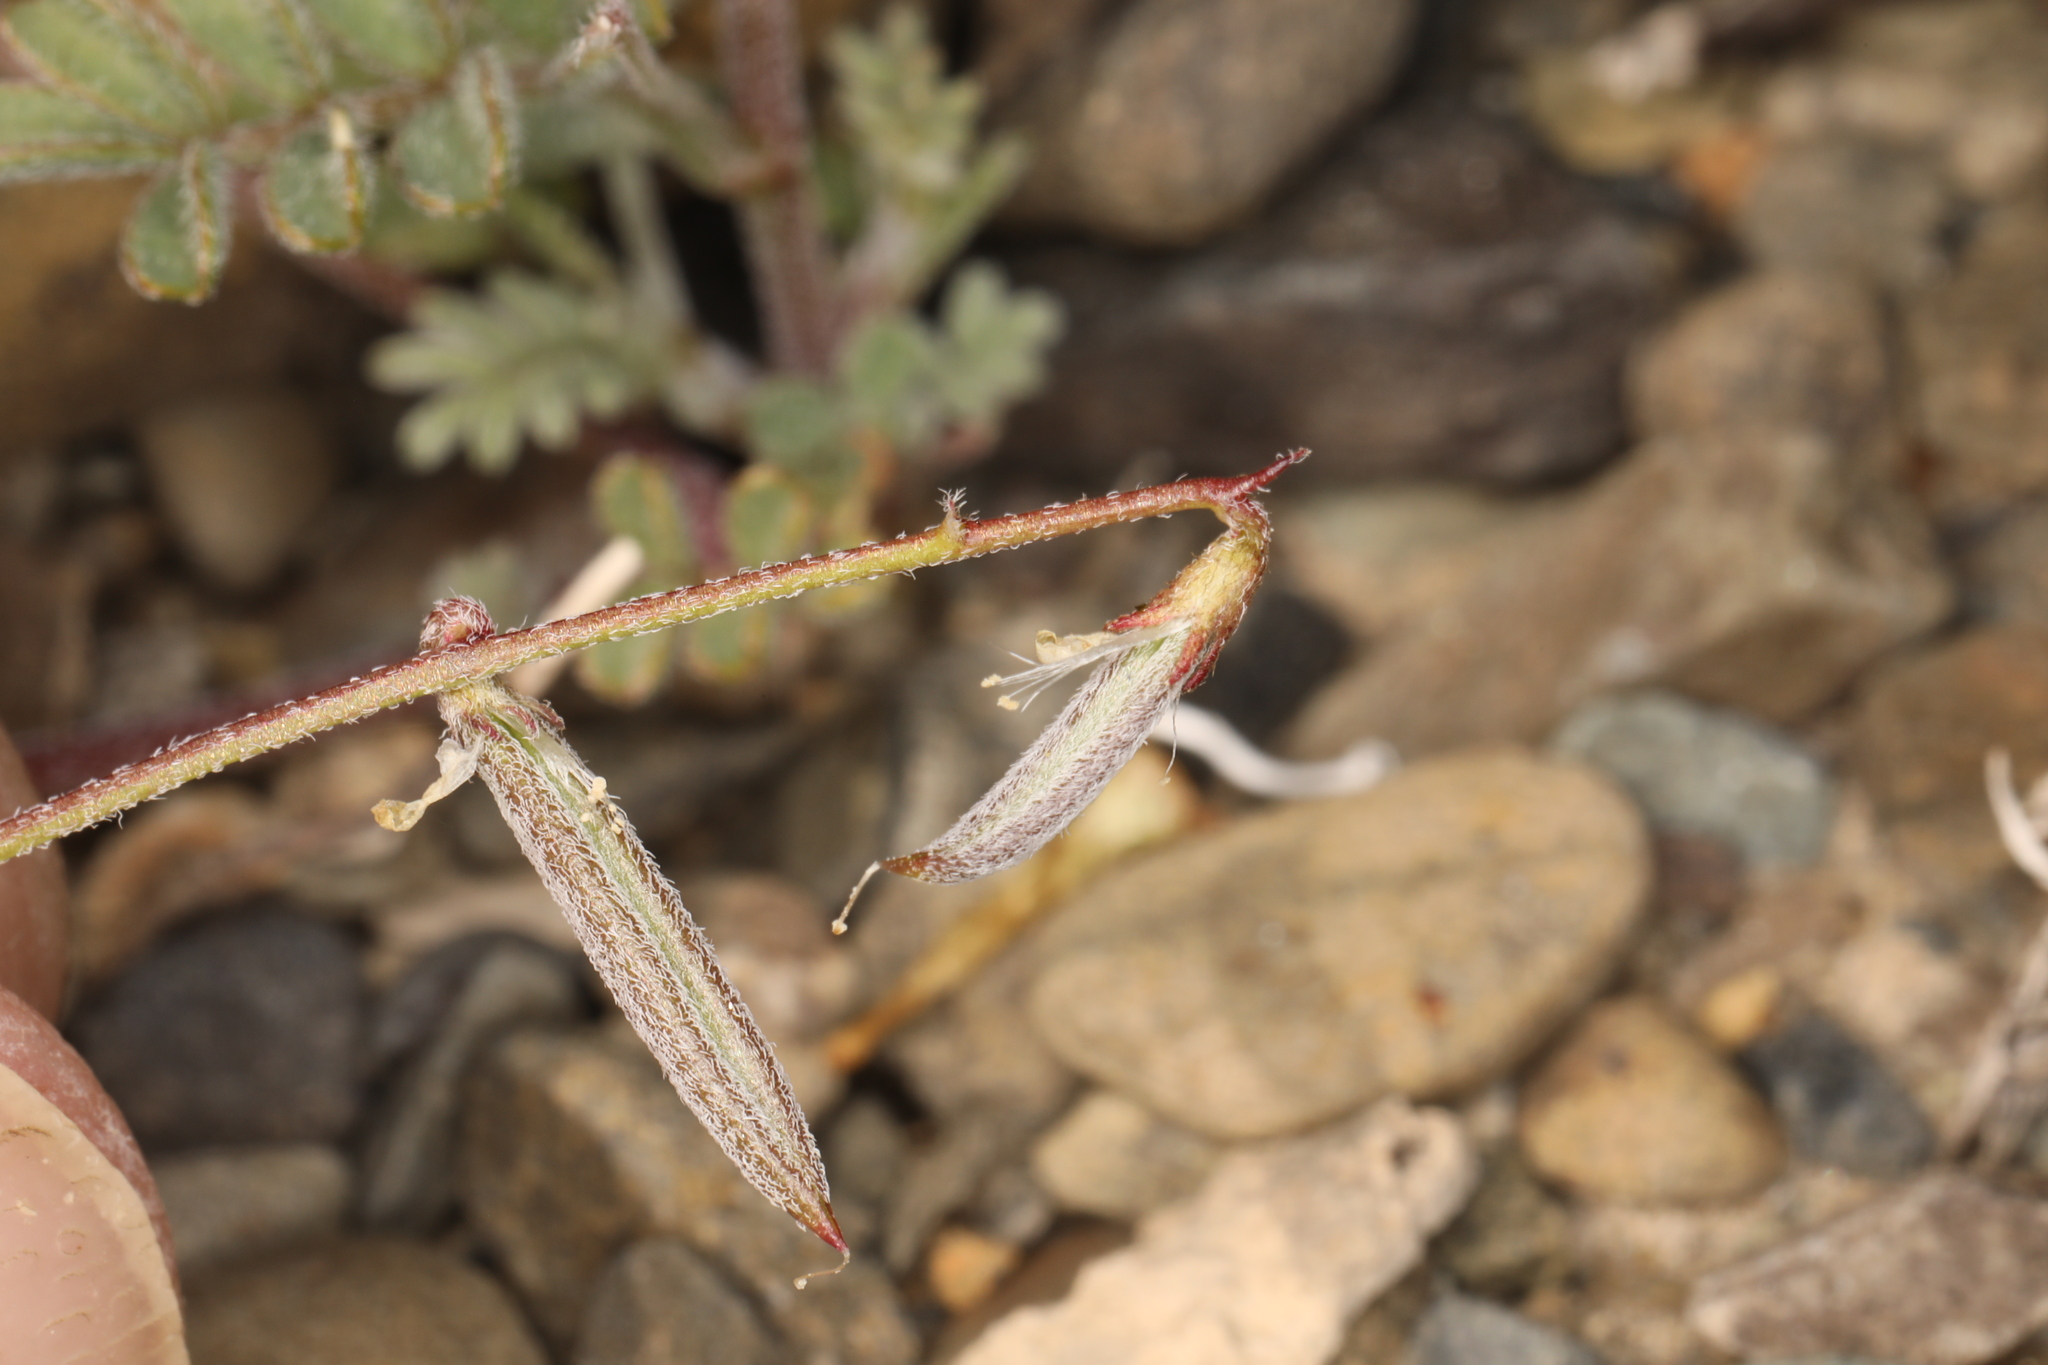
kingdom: Plantae
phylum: Tracheophyta
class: Magnoliopsida
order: Fabales
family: Fabaceae
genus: Astragalus
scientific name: Astragalus acutirostris
